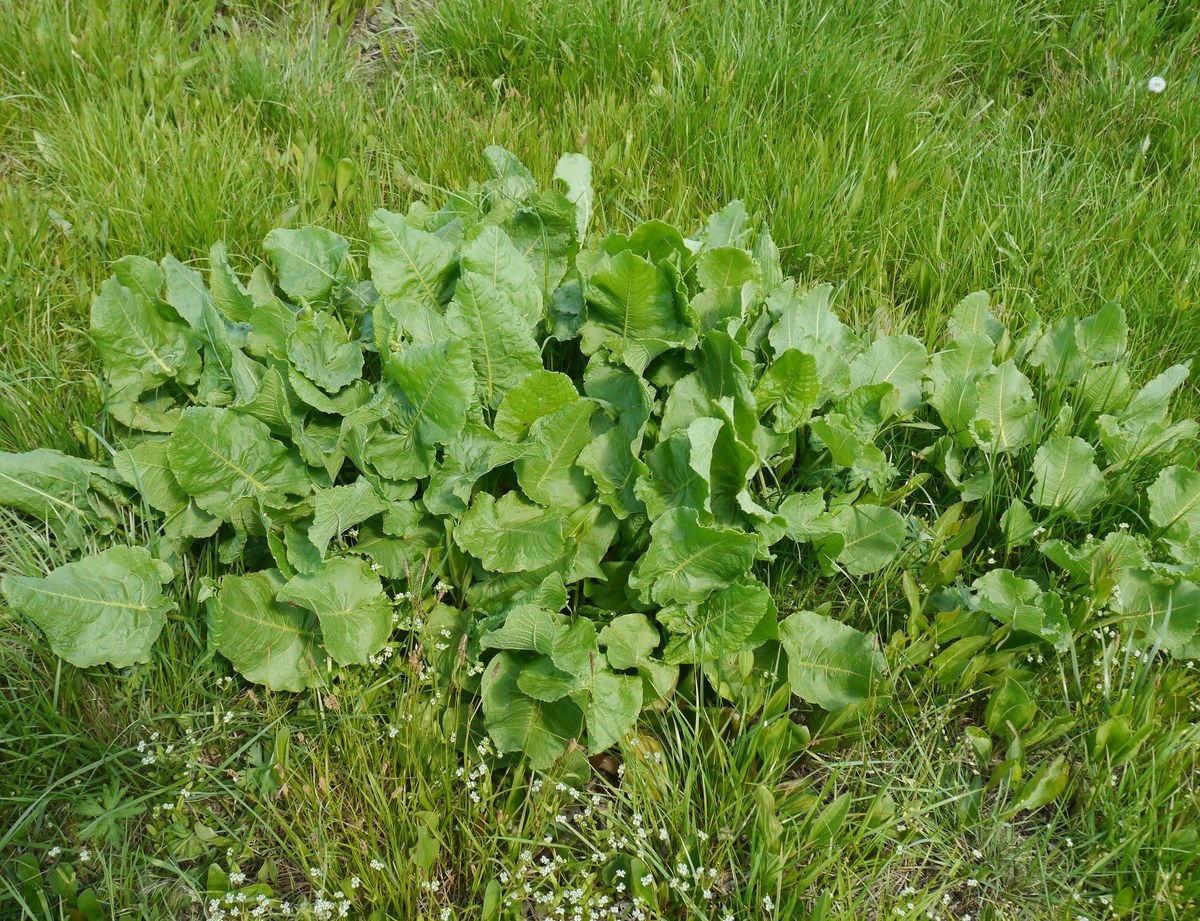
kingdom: Plantae
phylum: Tracheophyta
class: Magnoliopsida
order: Caryophyllales
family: Polygonaceae
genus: Rumex
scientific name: Rumex confertus
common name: Russian dock
